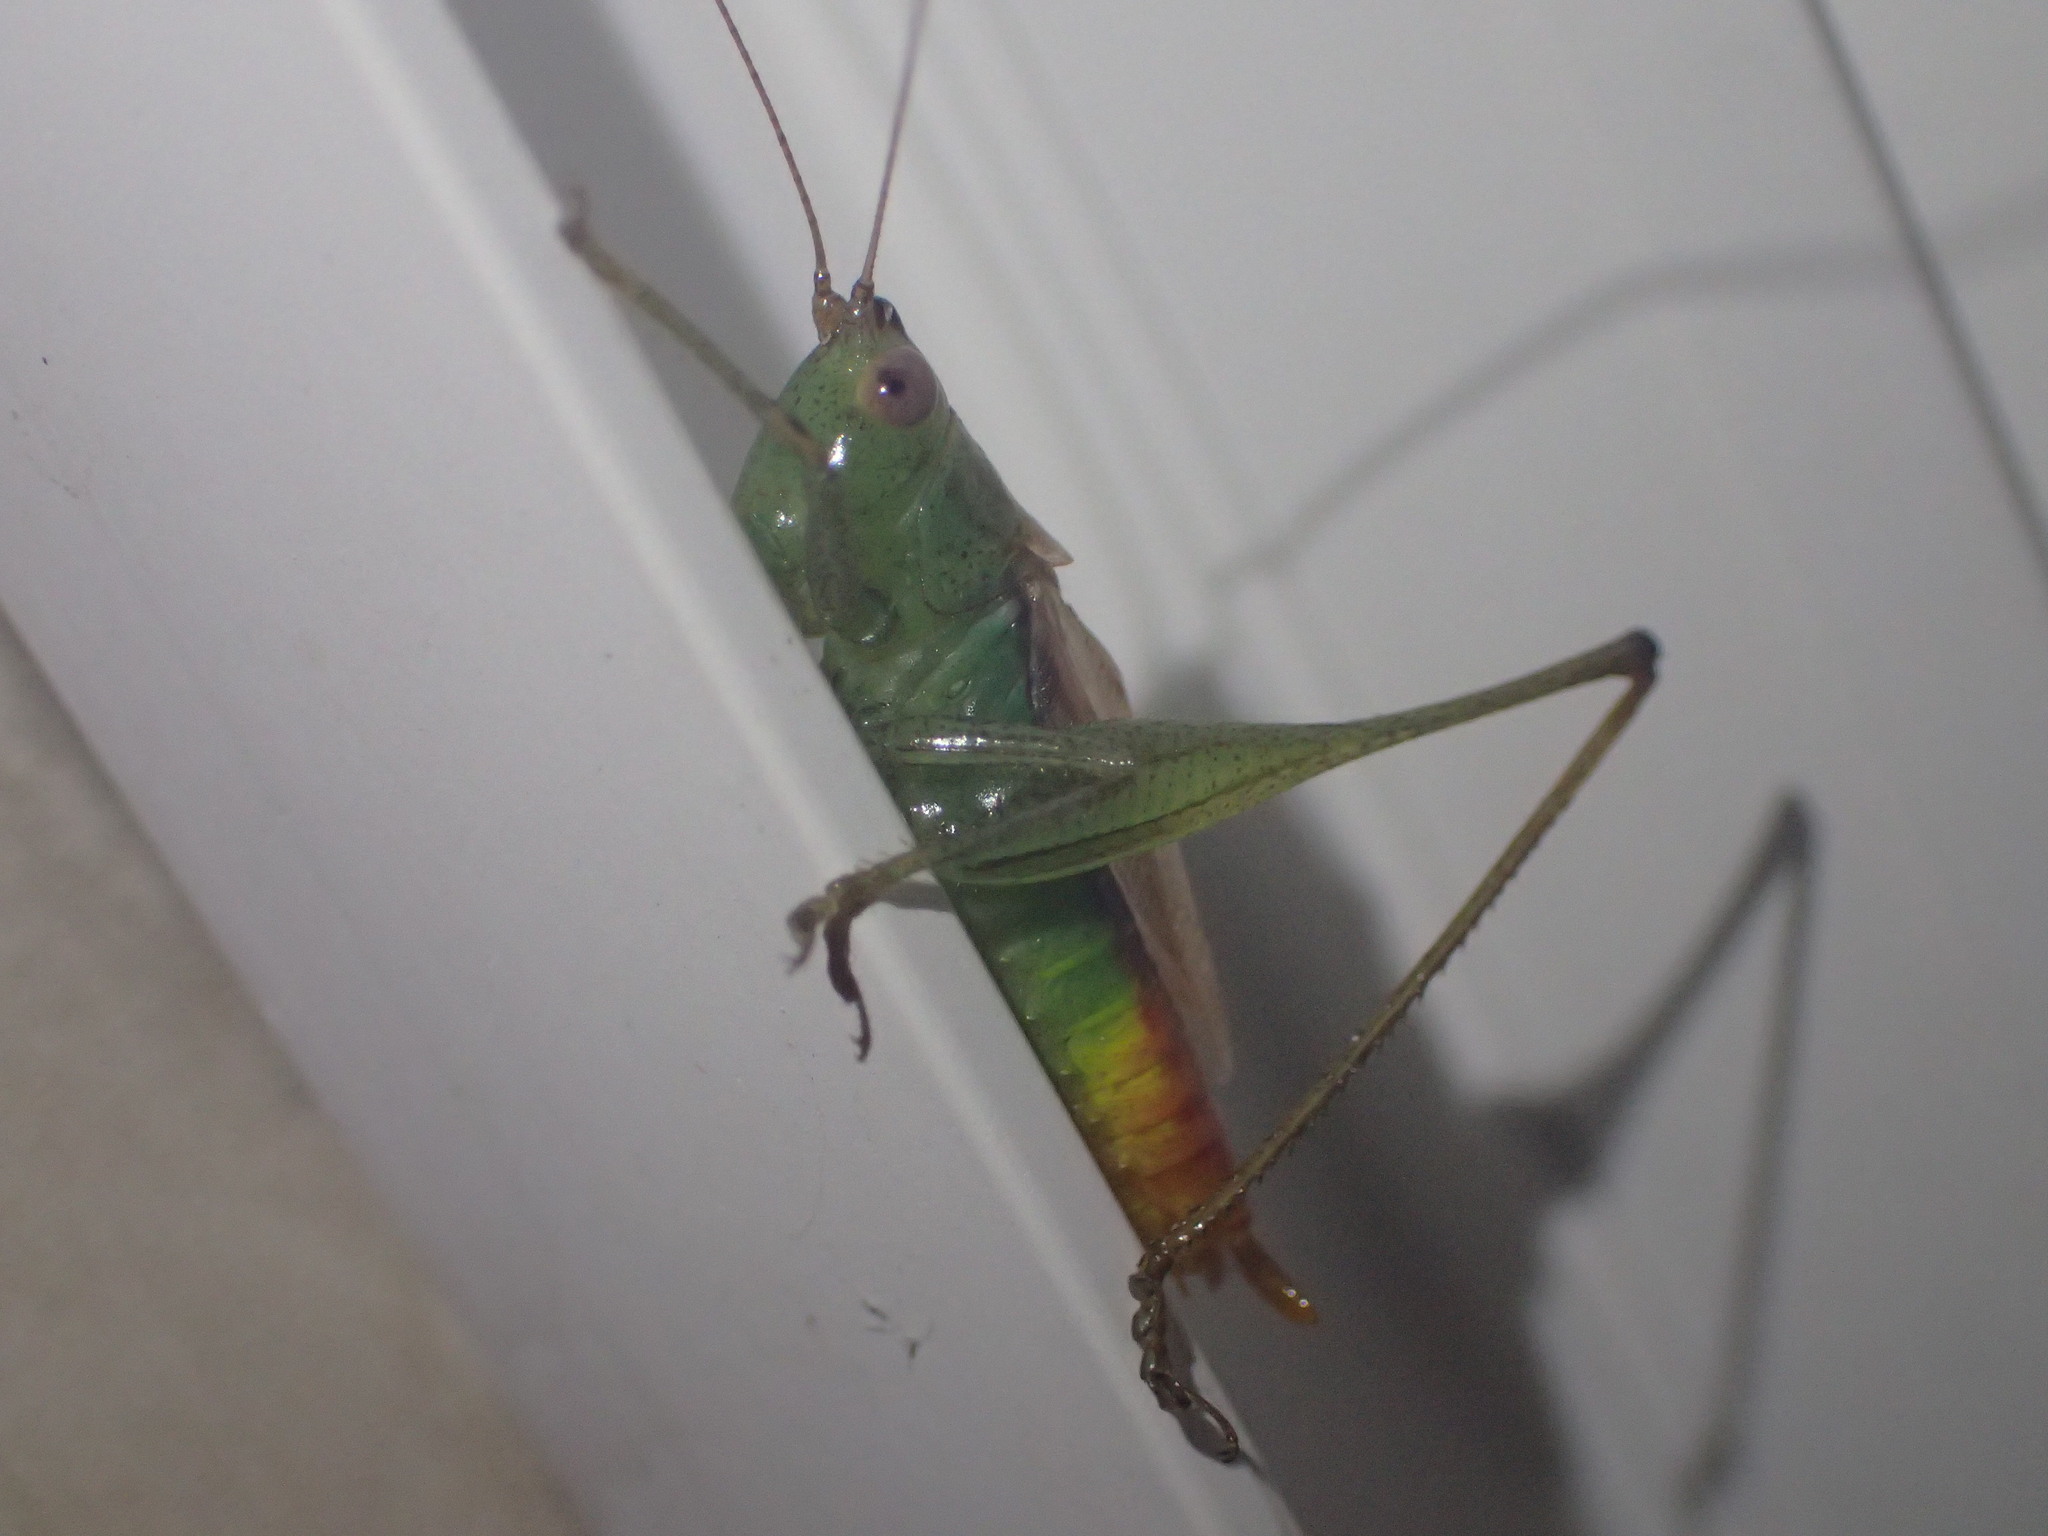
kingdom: Animalia
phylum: Arthropoda
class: Insecta
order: Orthoptera
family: Tettigoniidae
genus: Conocephalus
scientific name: Conocephalus brevipennis
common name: Short-winged meadow katydid
